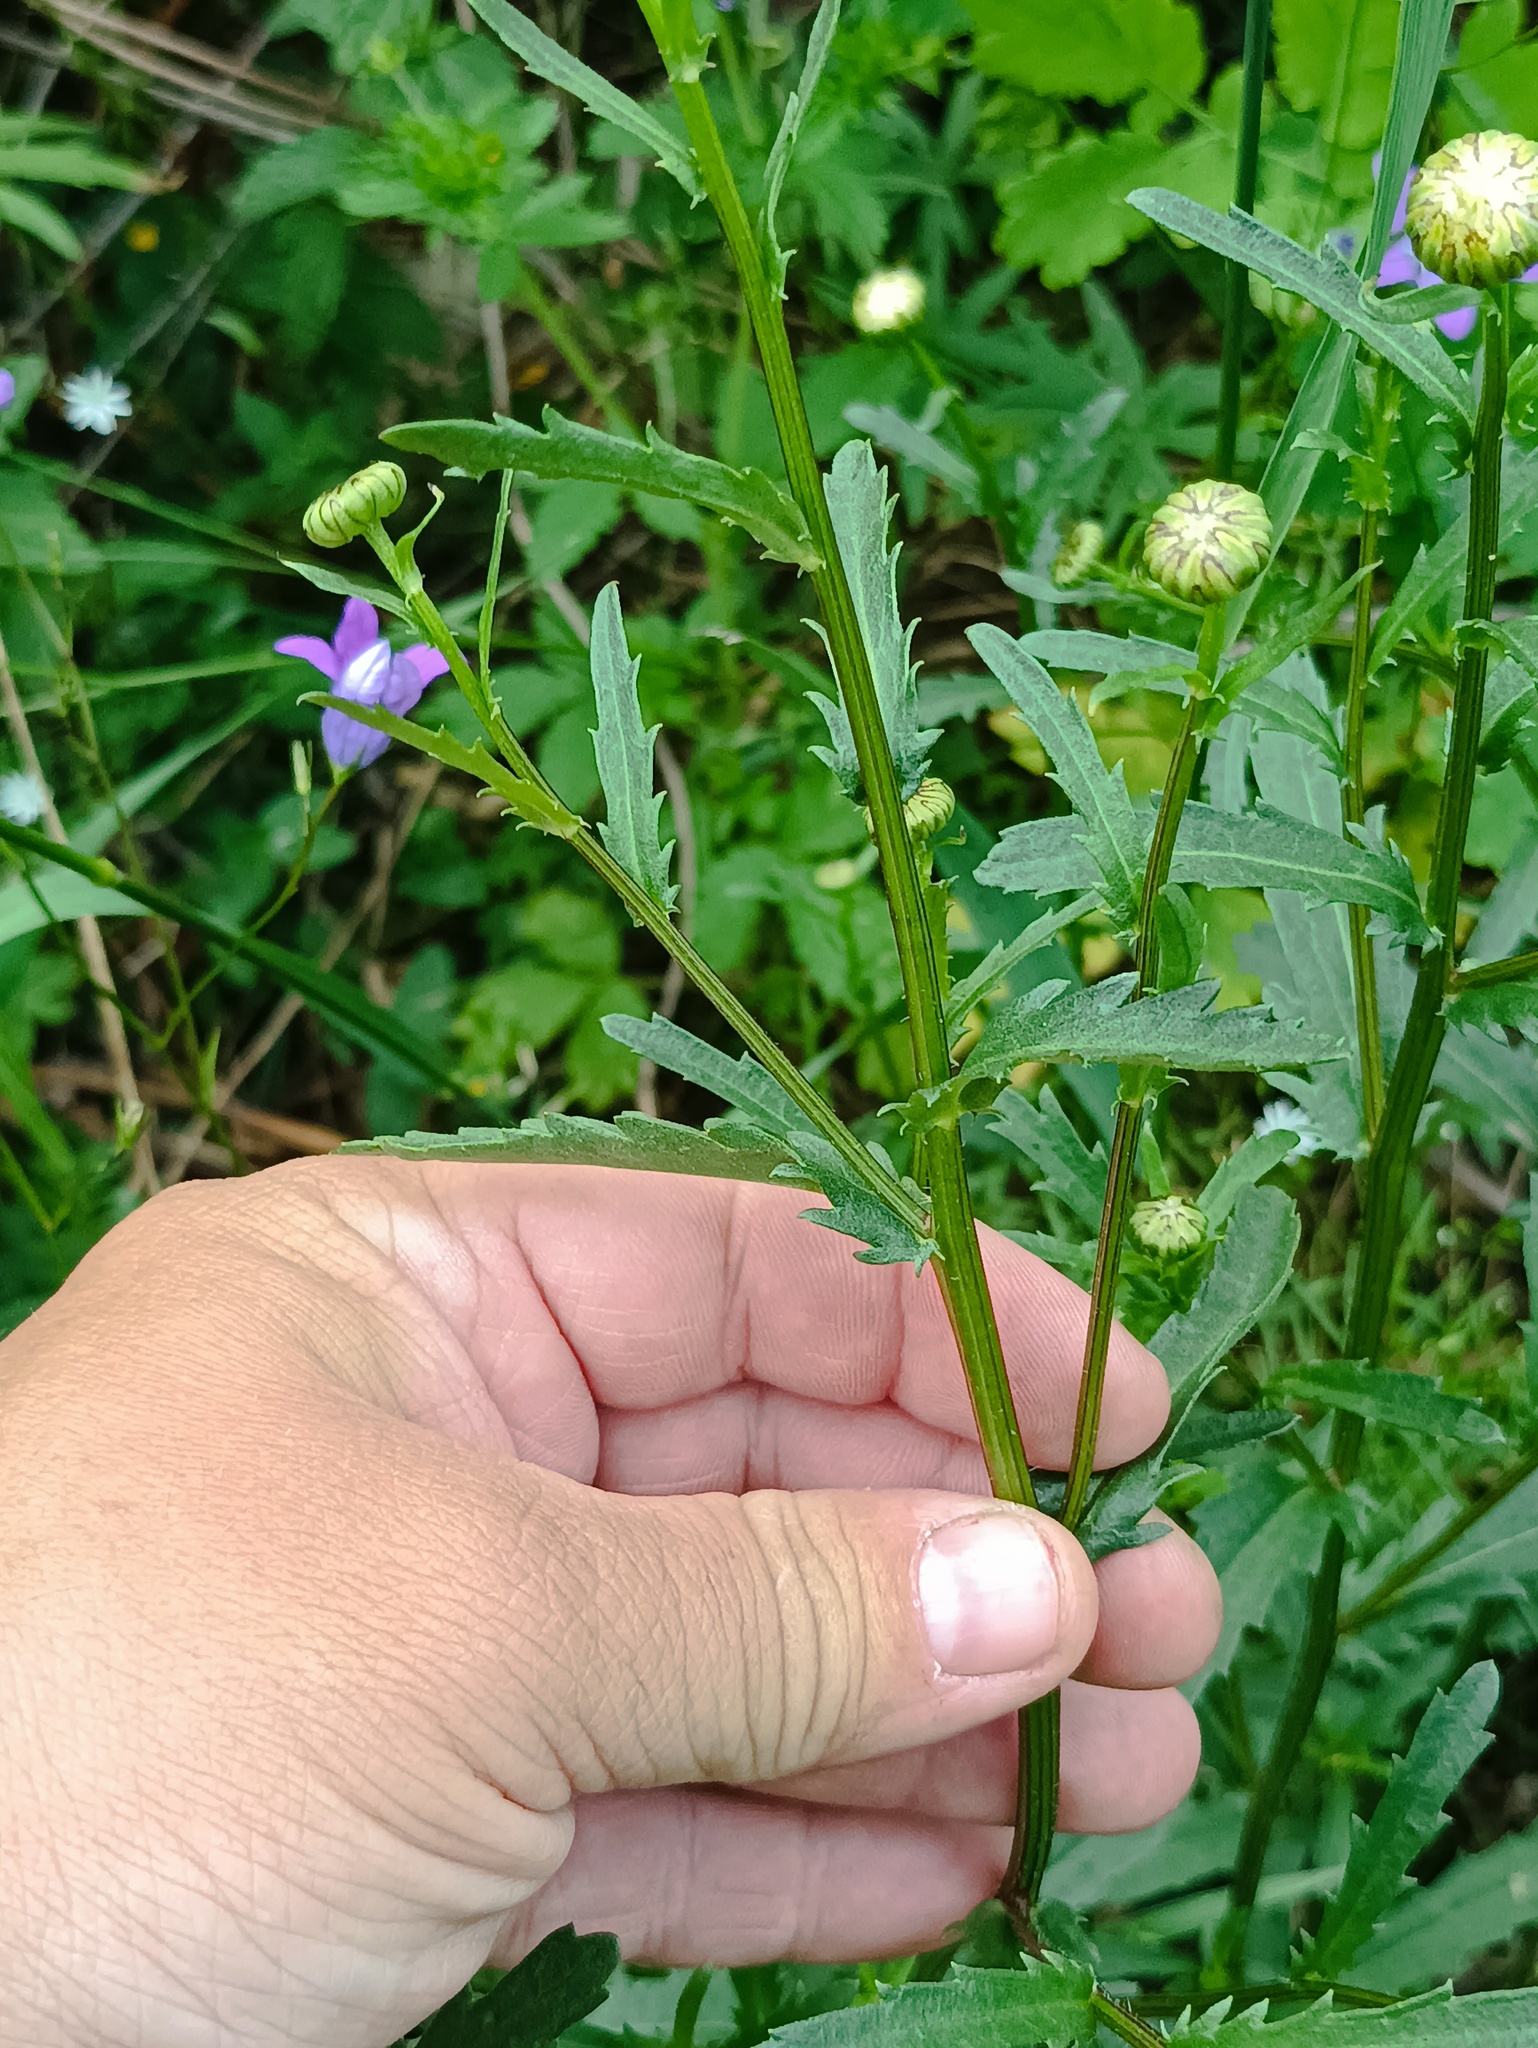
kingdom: Plantae
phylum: Tracheophyta
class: Magnoliopsida
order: Asterales
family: Asteraceae
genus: Leucanthemum
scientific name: Leucanthemum vulgare
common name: Oxeye daisy
